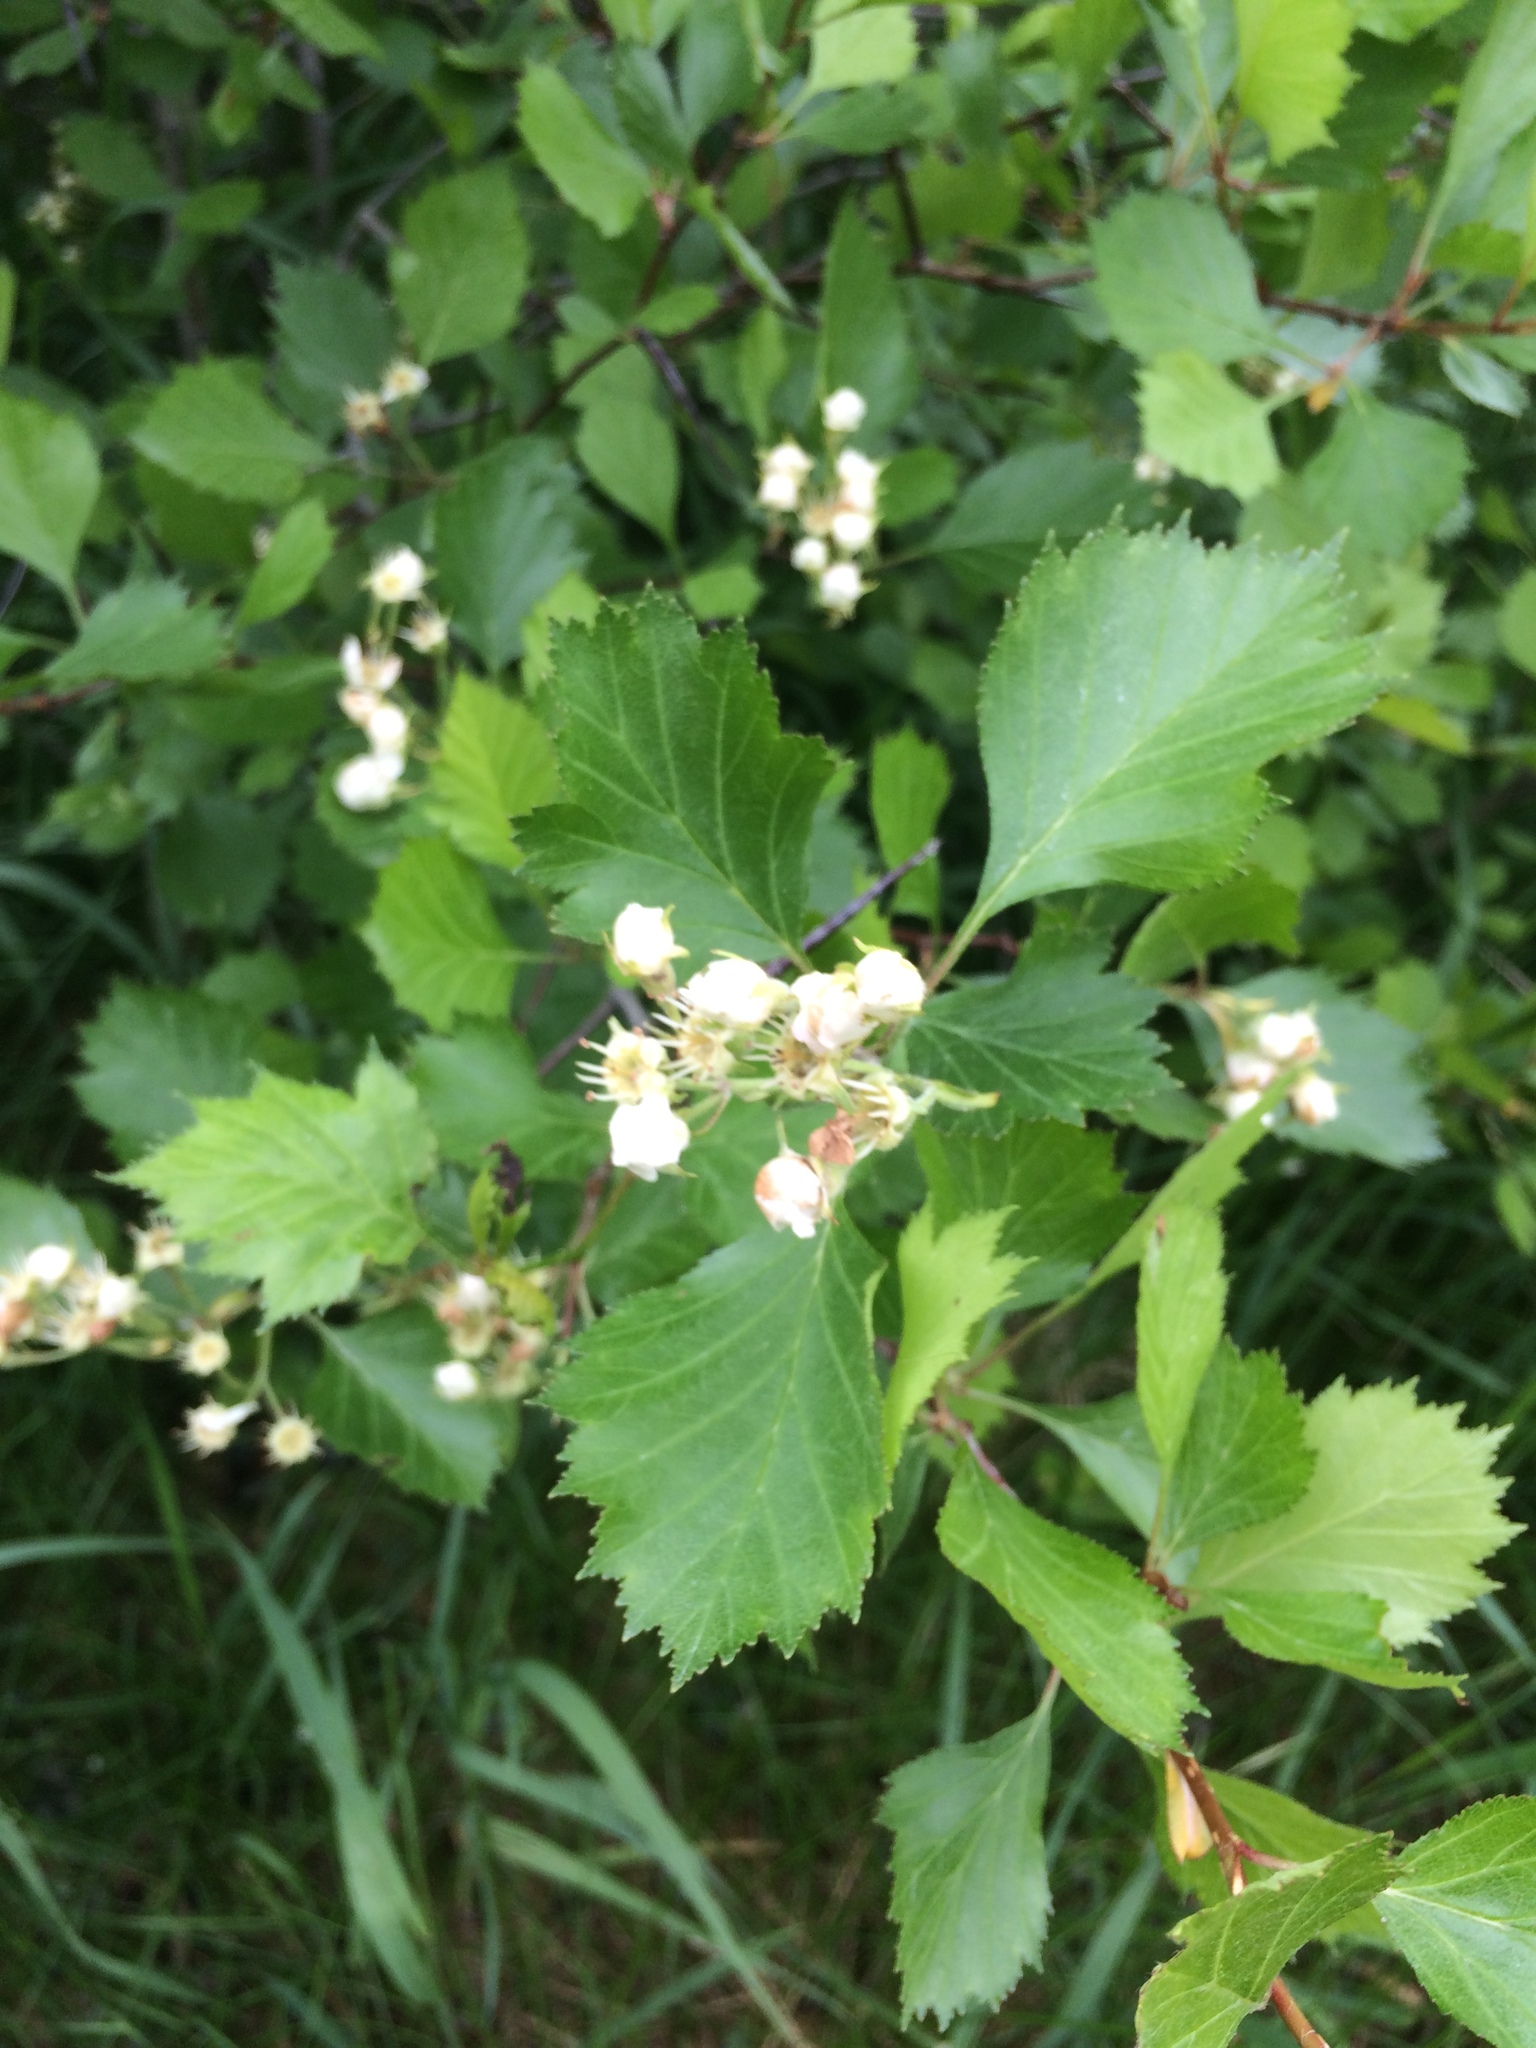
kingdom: Plantae
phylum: Tracheophyta
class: Magnoliopsida
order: Rosales
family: Rosaceae
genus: Crataegus
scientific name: Crataegus chrysocarpa
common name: Fire-berry hawthorn
